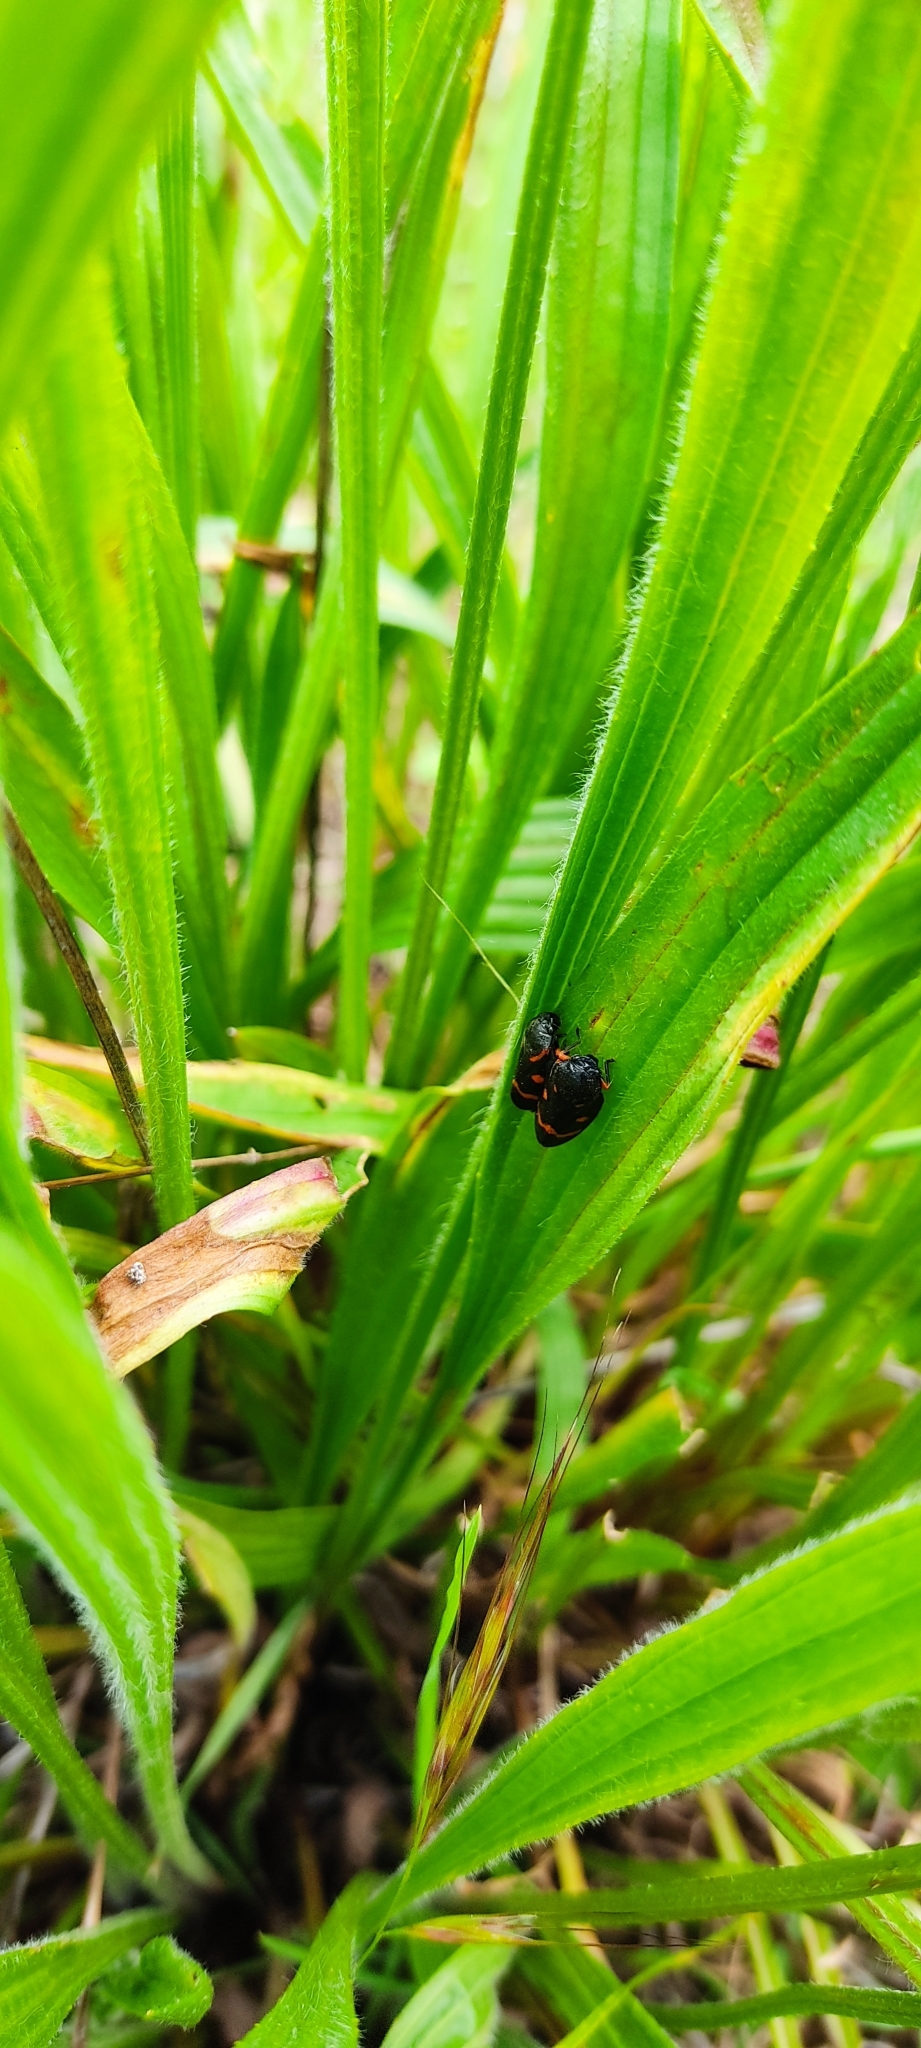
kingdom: Animalia
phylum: Arthropoda
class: Insecta
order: Hemiptera
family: Cercopidae
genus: Cercopis
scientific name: Cercopis intermedia
